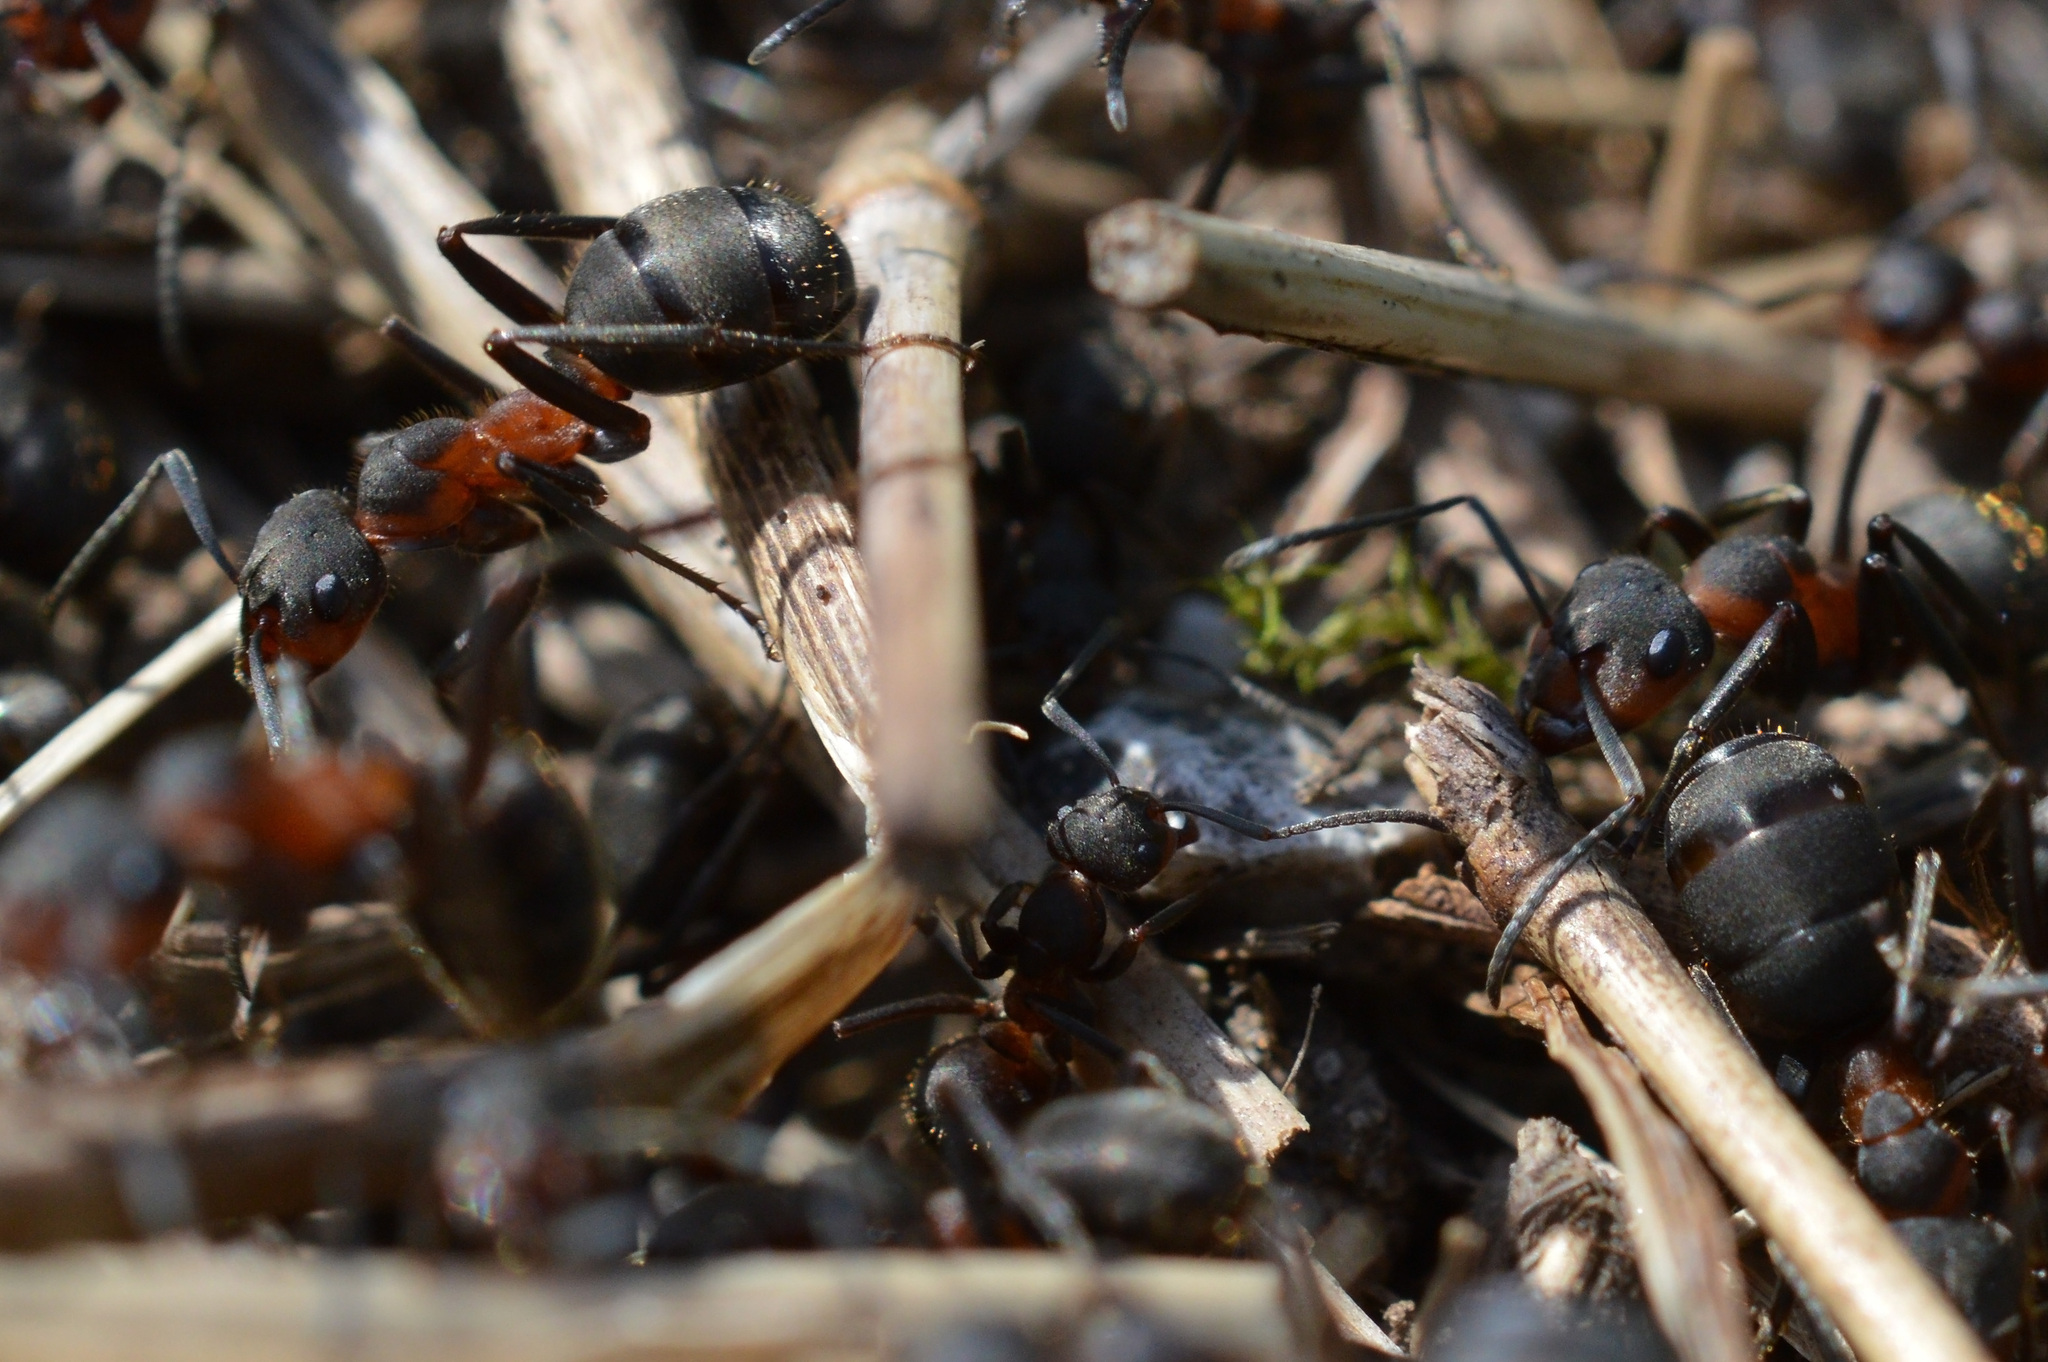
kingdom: Animalia
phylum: Arthropoda
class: Insecta
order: Hymenoptera
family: Formicidae
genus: Formica
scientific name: Formica pratensis
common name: European red wood ant
